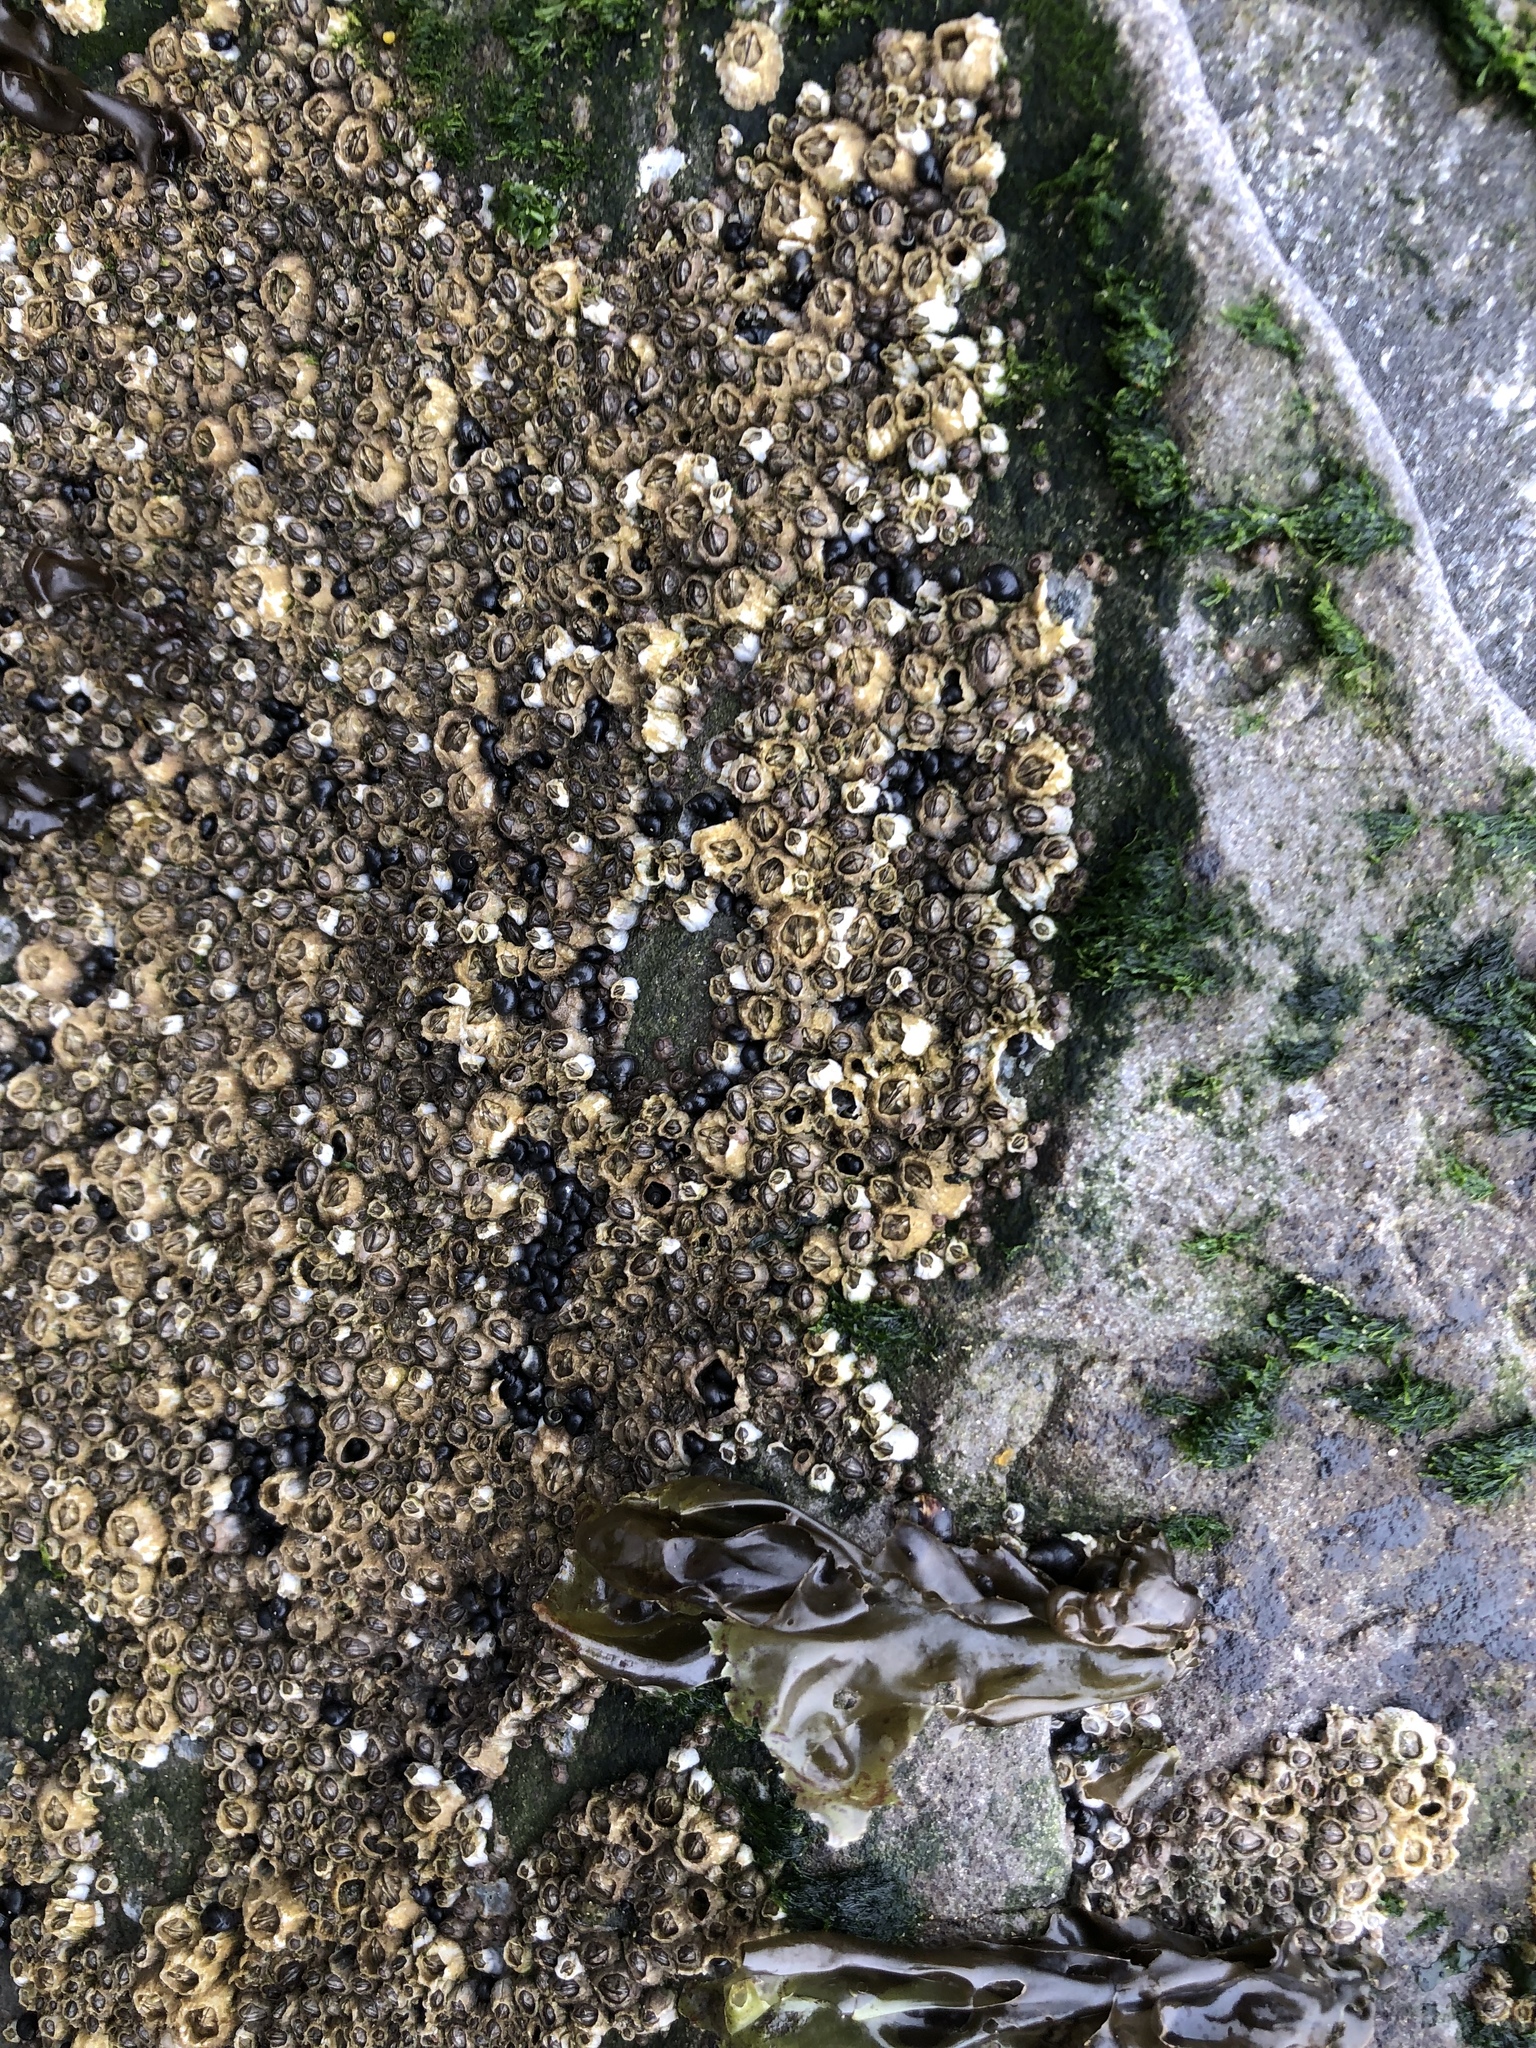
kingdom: Animalia
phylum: Arthropoda
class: Maxillopoda
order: Sessilia
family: Balanidae
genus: Balanus
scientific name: Balanus glandula
